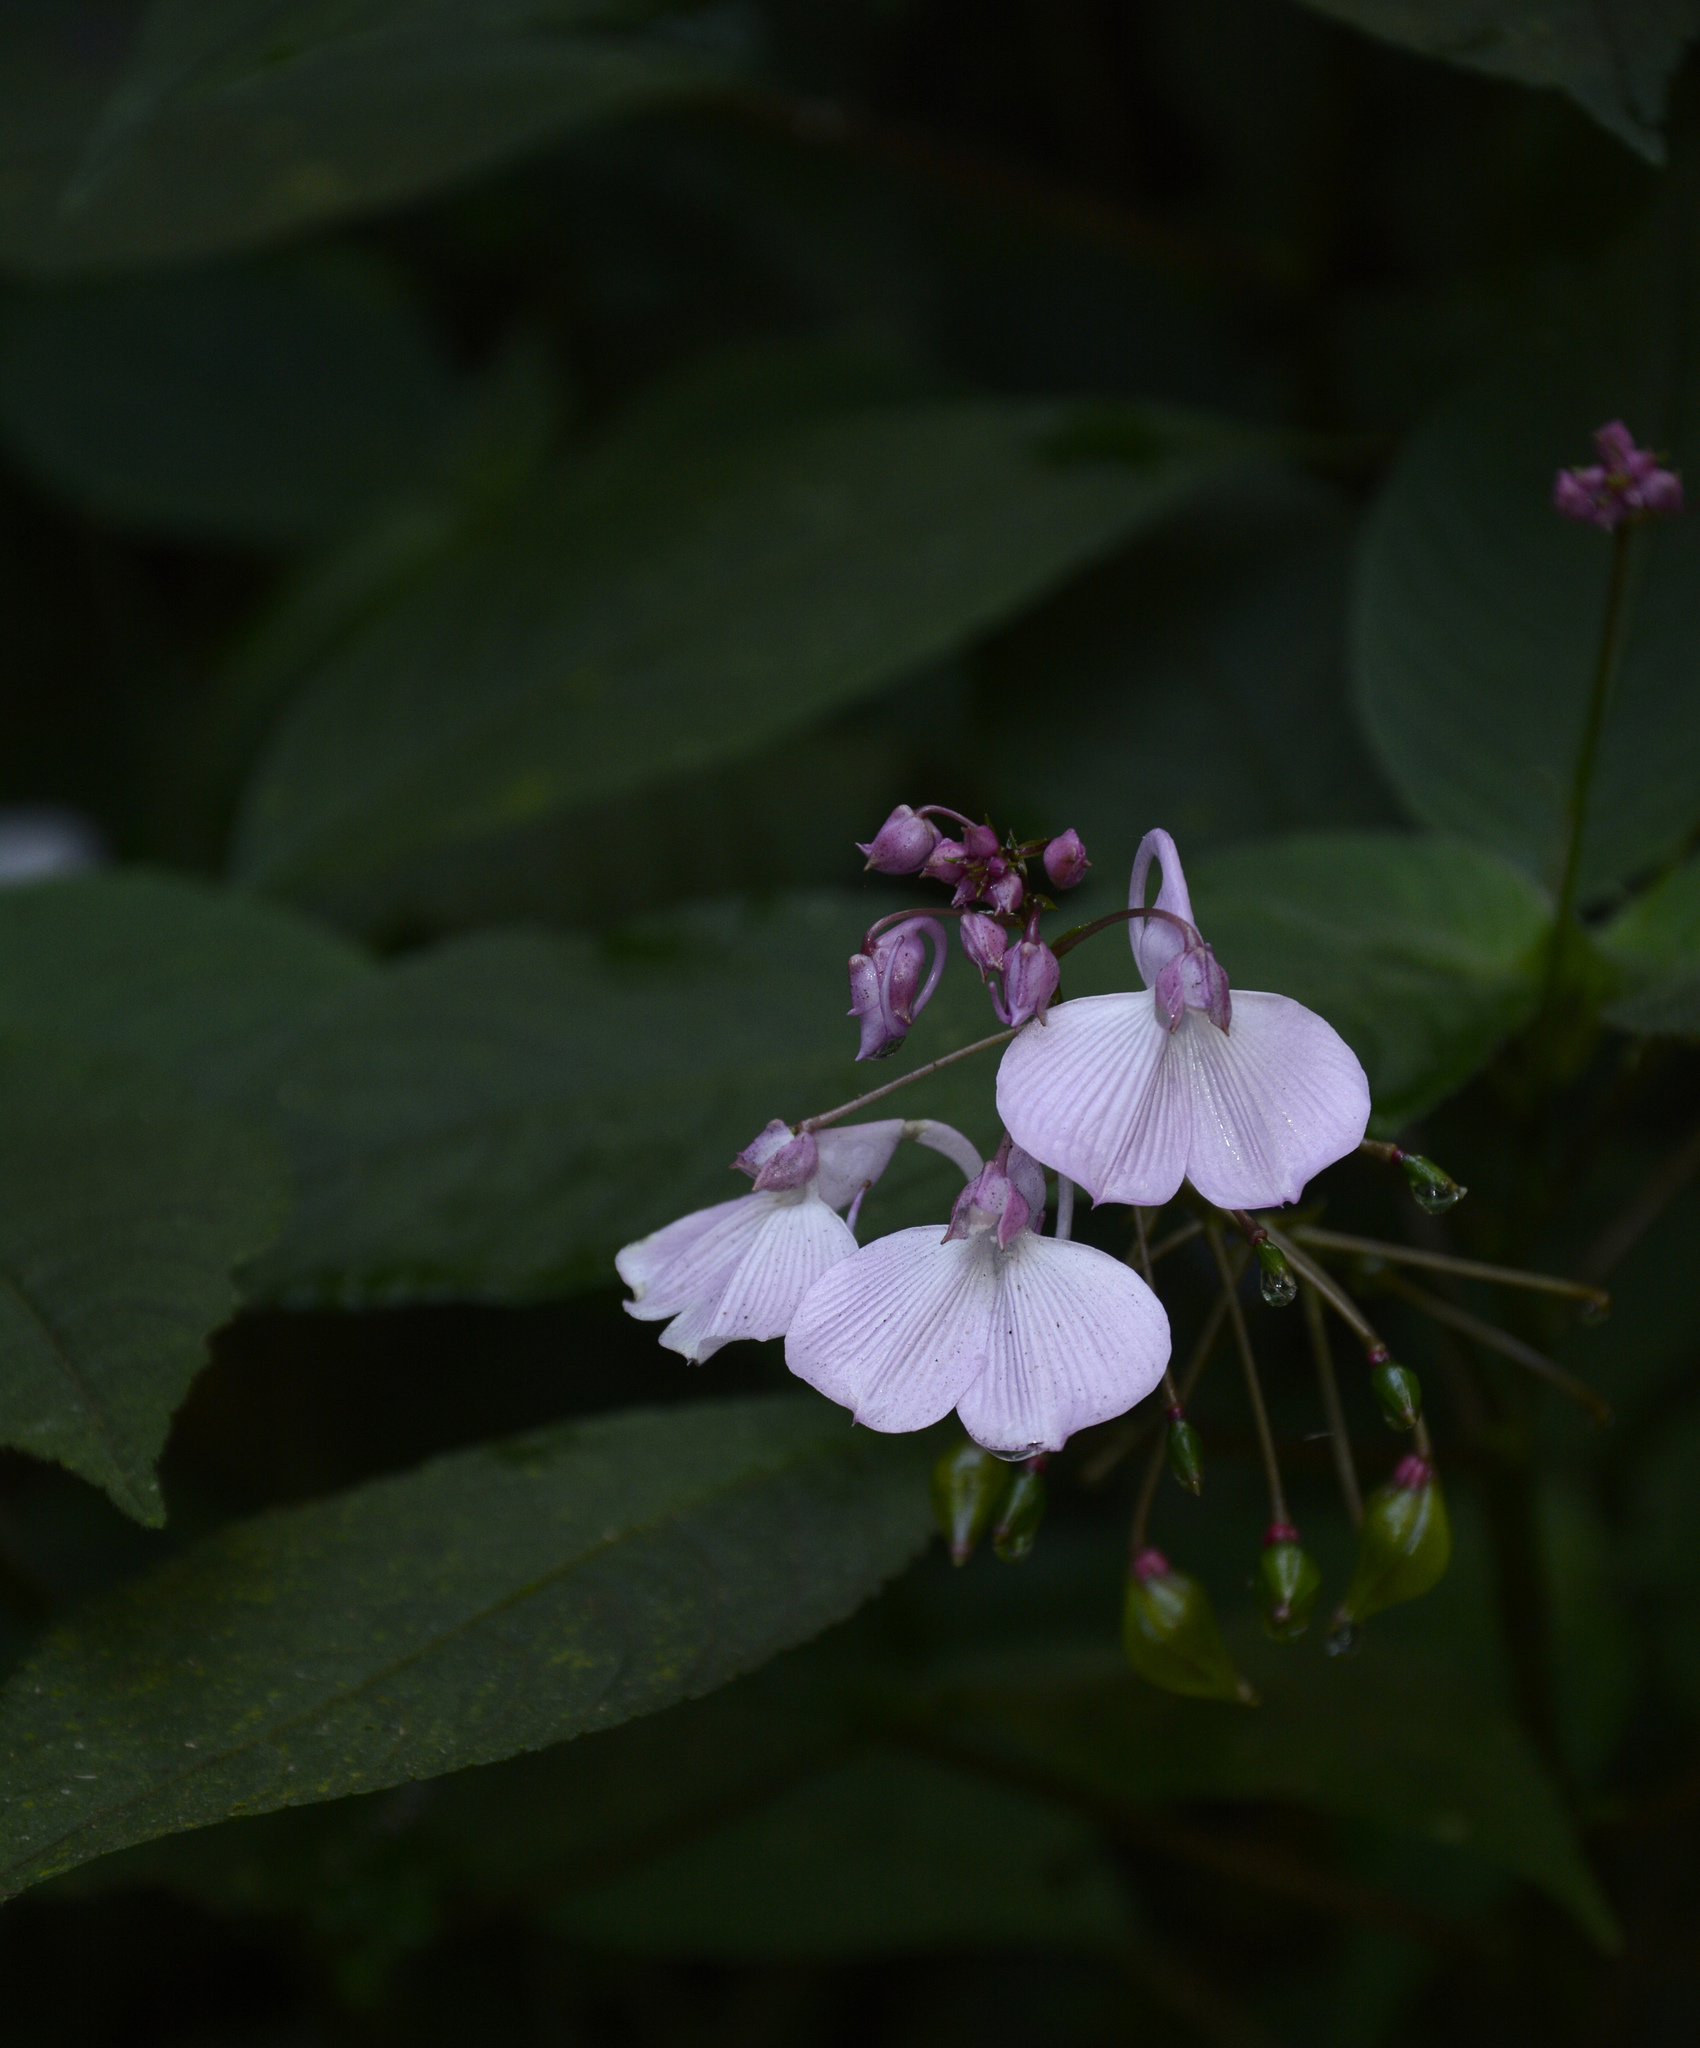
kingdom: Plantae
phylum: Tracheophyta
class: Magnoliopsida
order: Ericales
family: Balsaminaceae
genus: Impatiens
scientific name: Impatiens maculata
